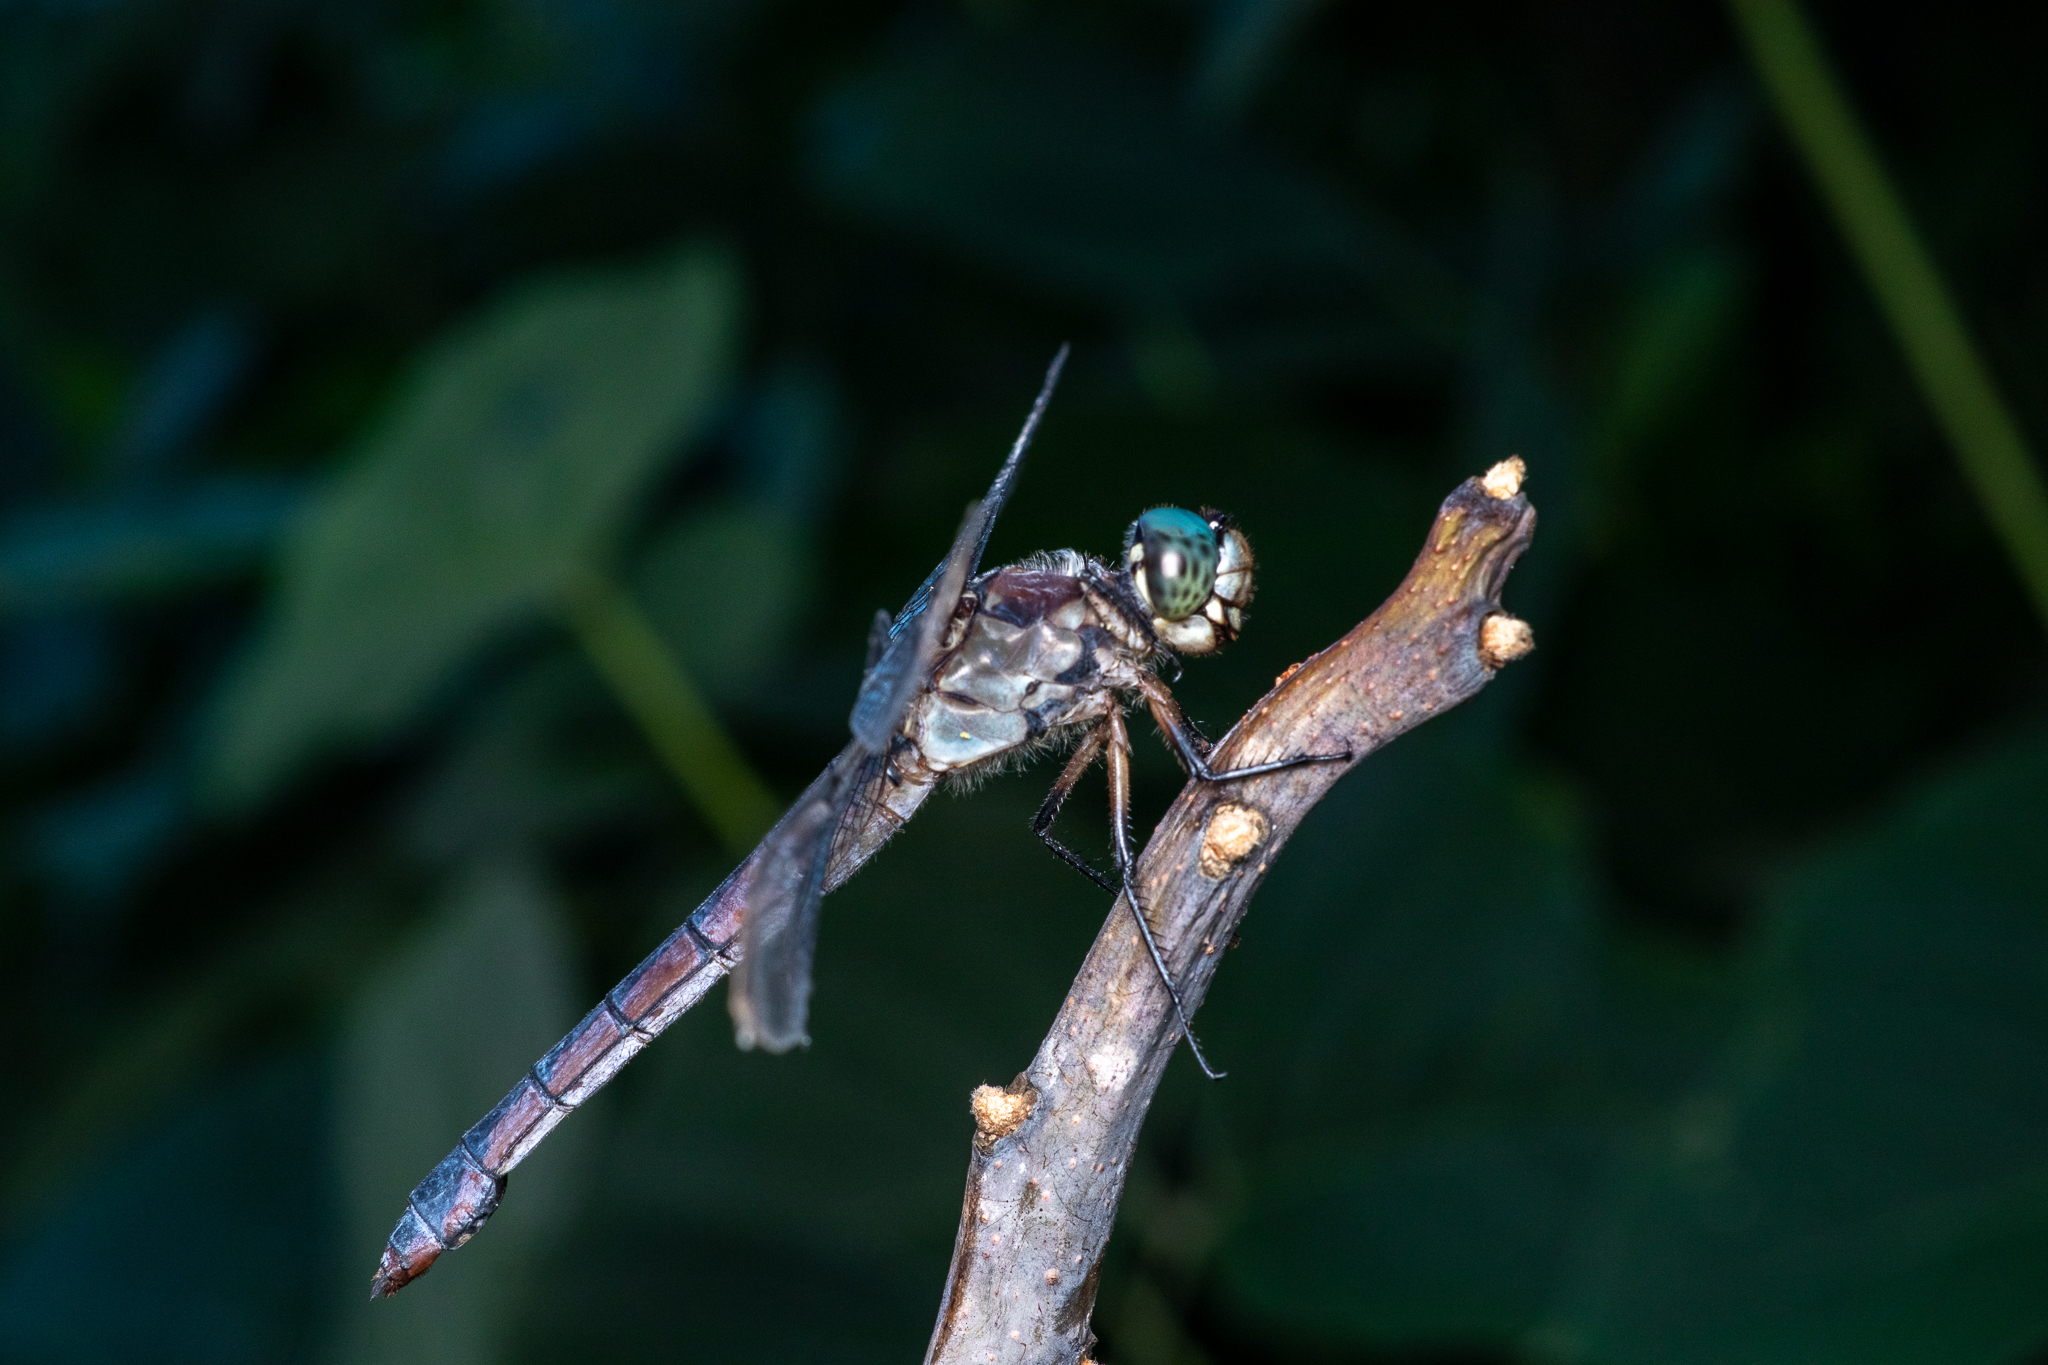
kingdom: Animalia
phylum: Arthropoda
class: Insecta
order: Odonata
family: Libellulidae
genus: Libellula
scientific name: Libellula vibrans
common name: Great blue skimmer
